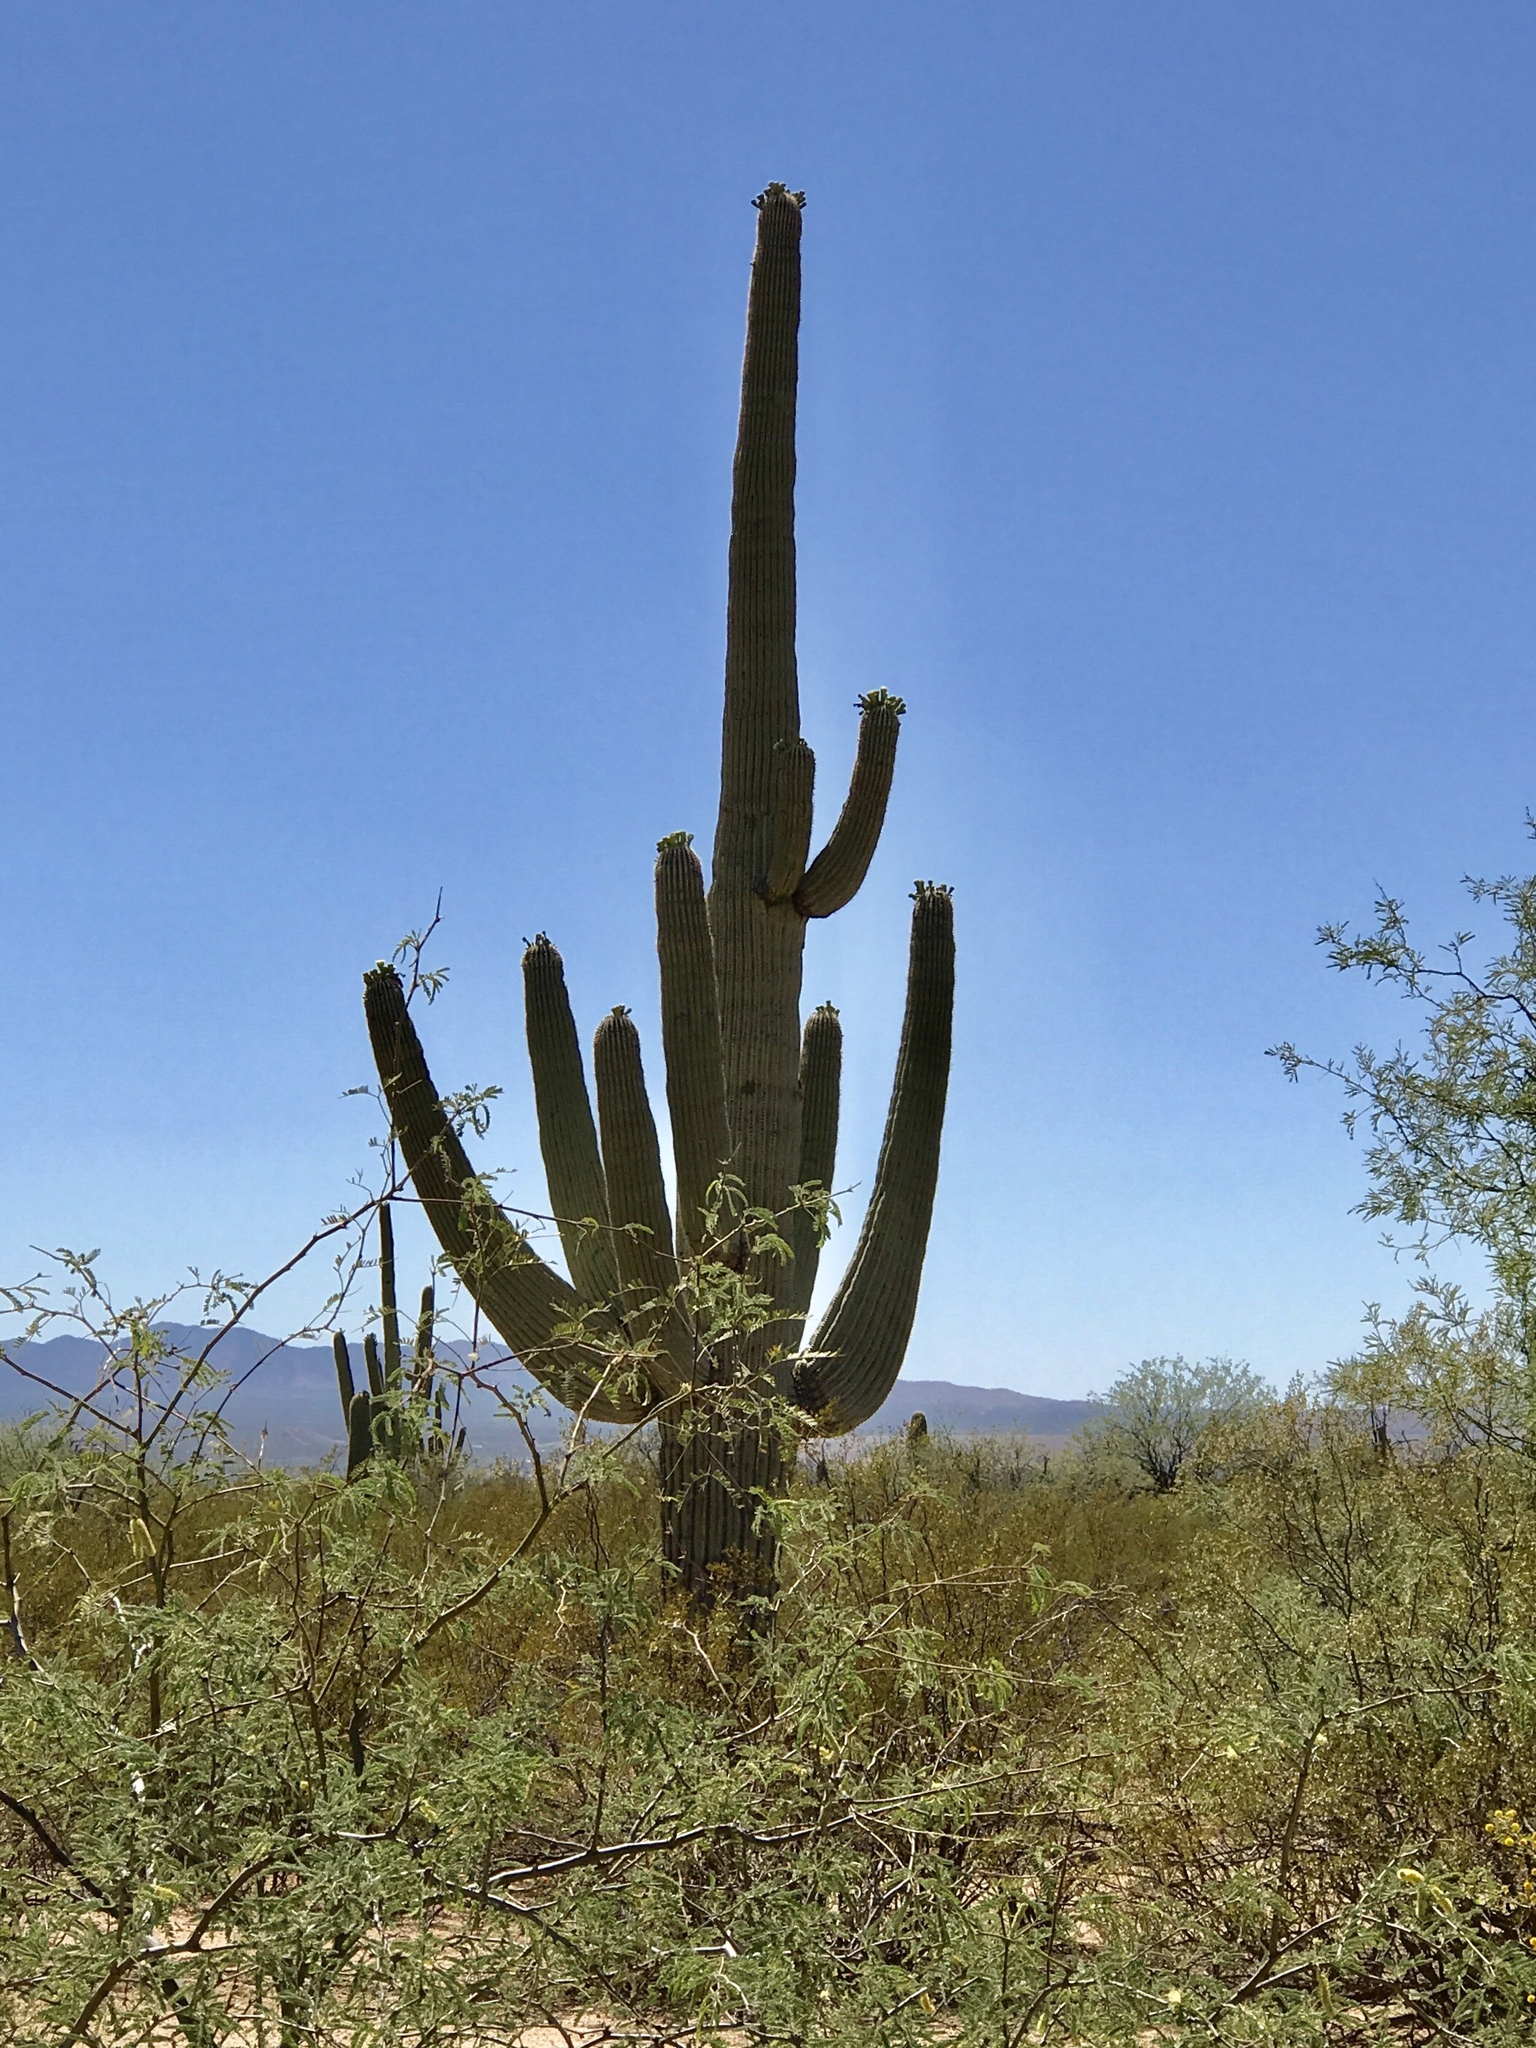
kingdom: Plantae
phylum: Tracheophyta
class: Magnoliopsida
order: Caryophyllales
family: Cactaceae
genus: Carnegiea
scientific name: Carnegiea gigantea
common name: Saguaro
